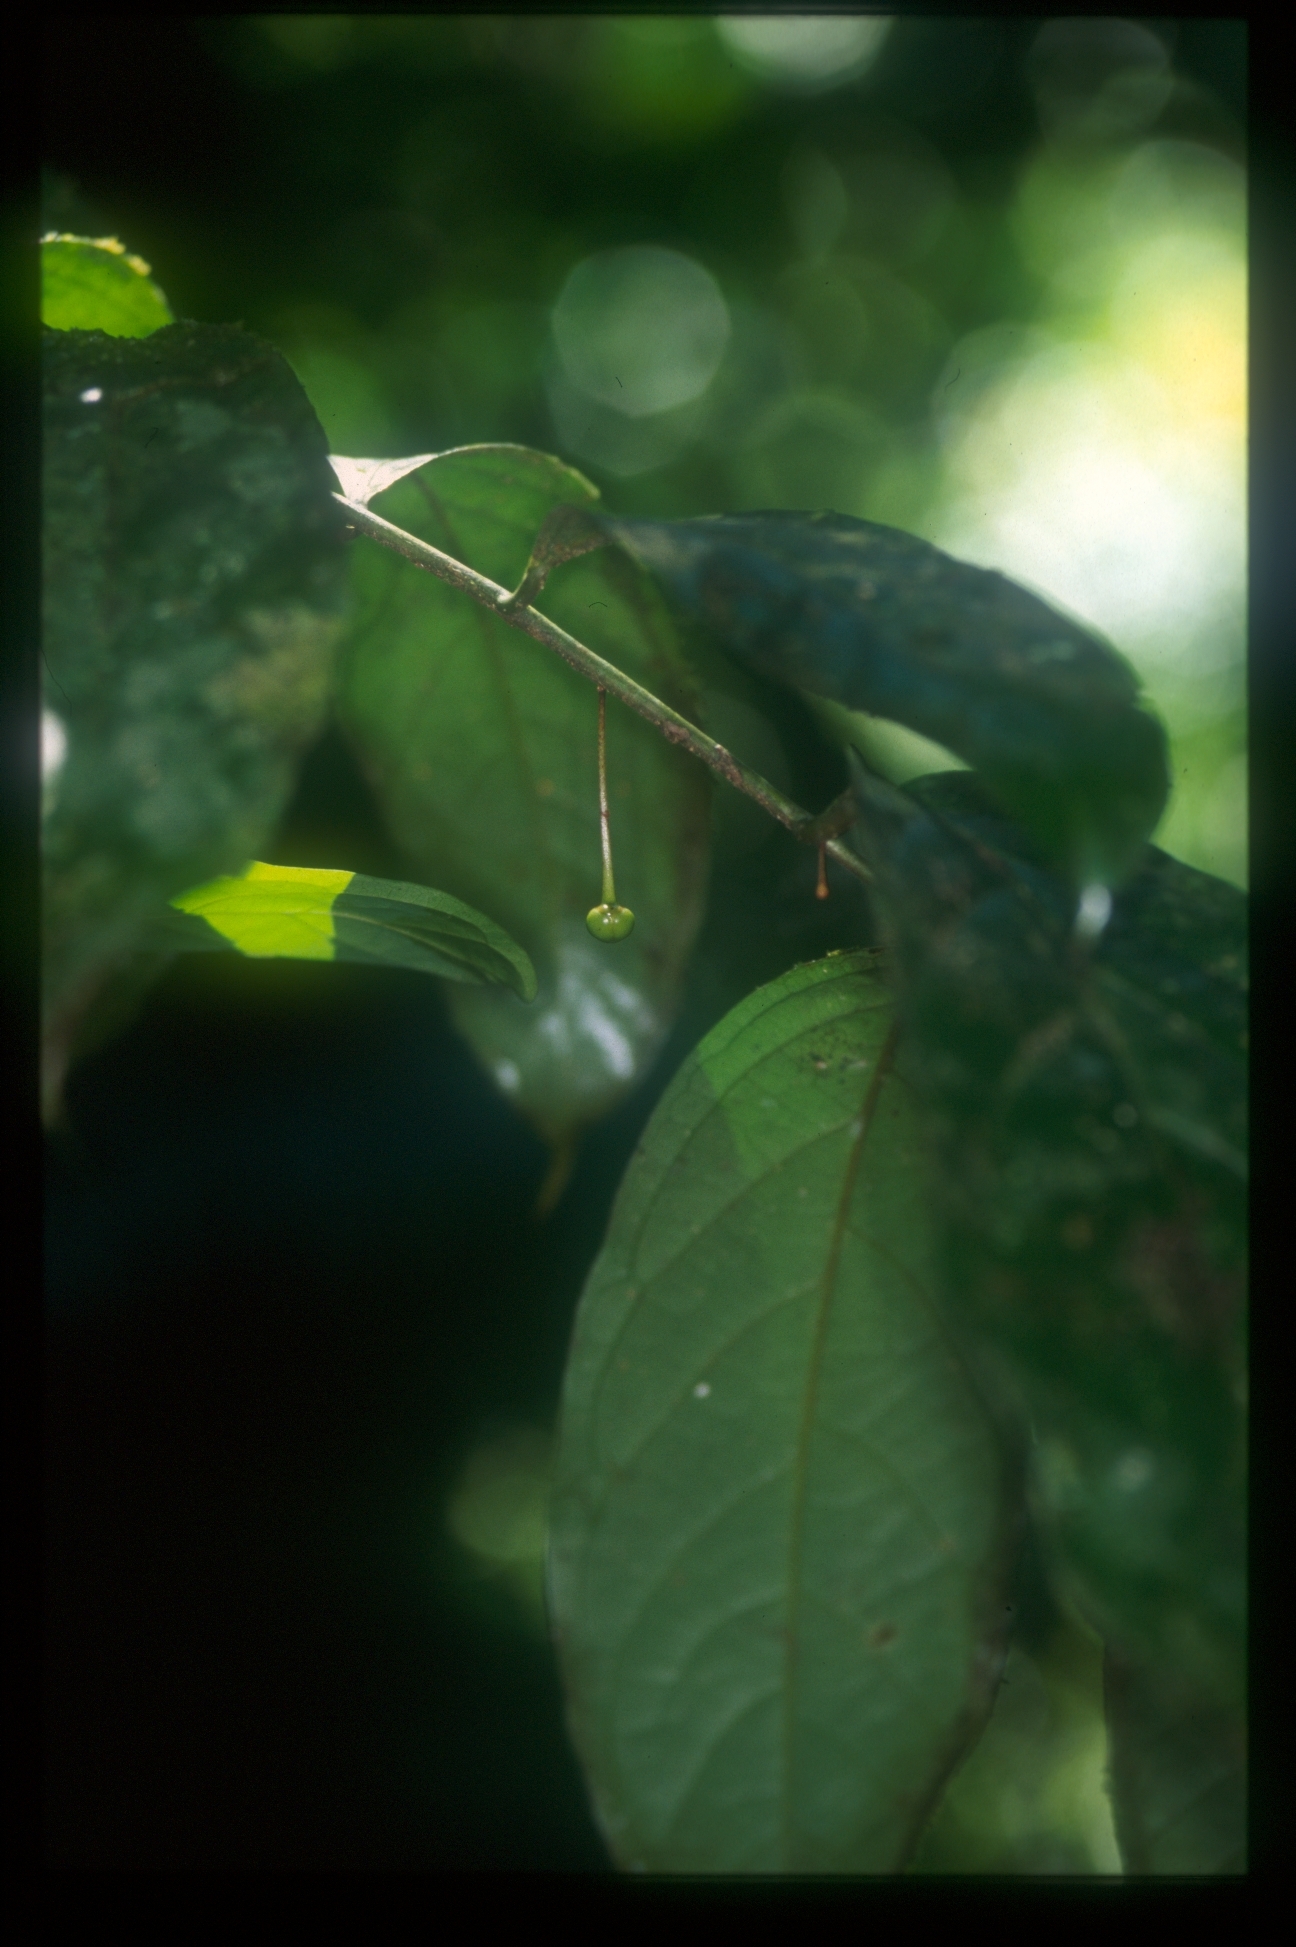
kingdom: Plantae
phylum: Tracheophyta
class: Magnoliopsida
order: Magnoliales
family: Annonaceae
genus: Cremastosperma
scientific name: Cremastosperma pendulum
